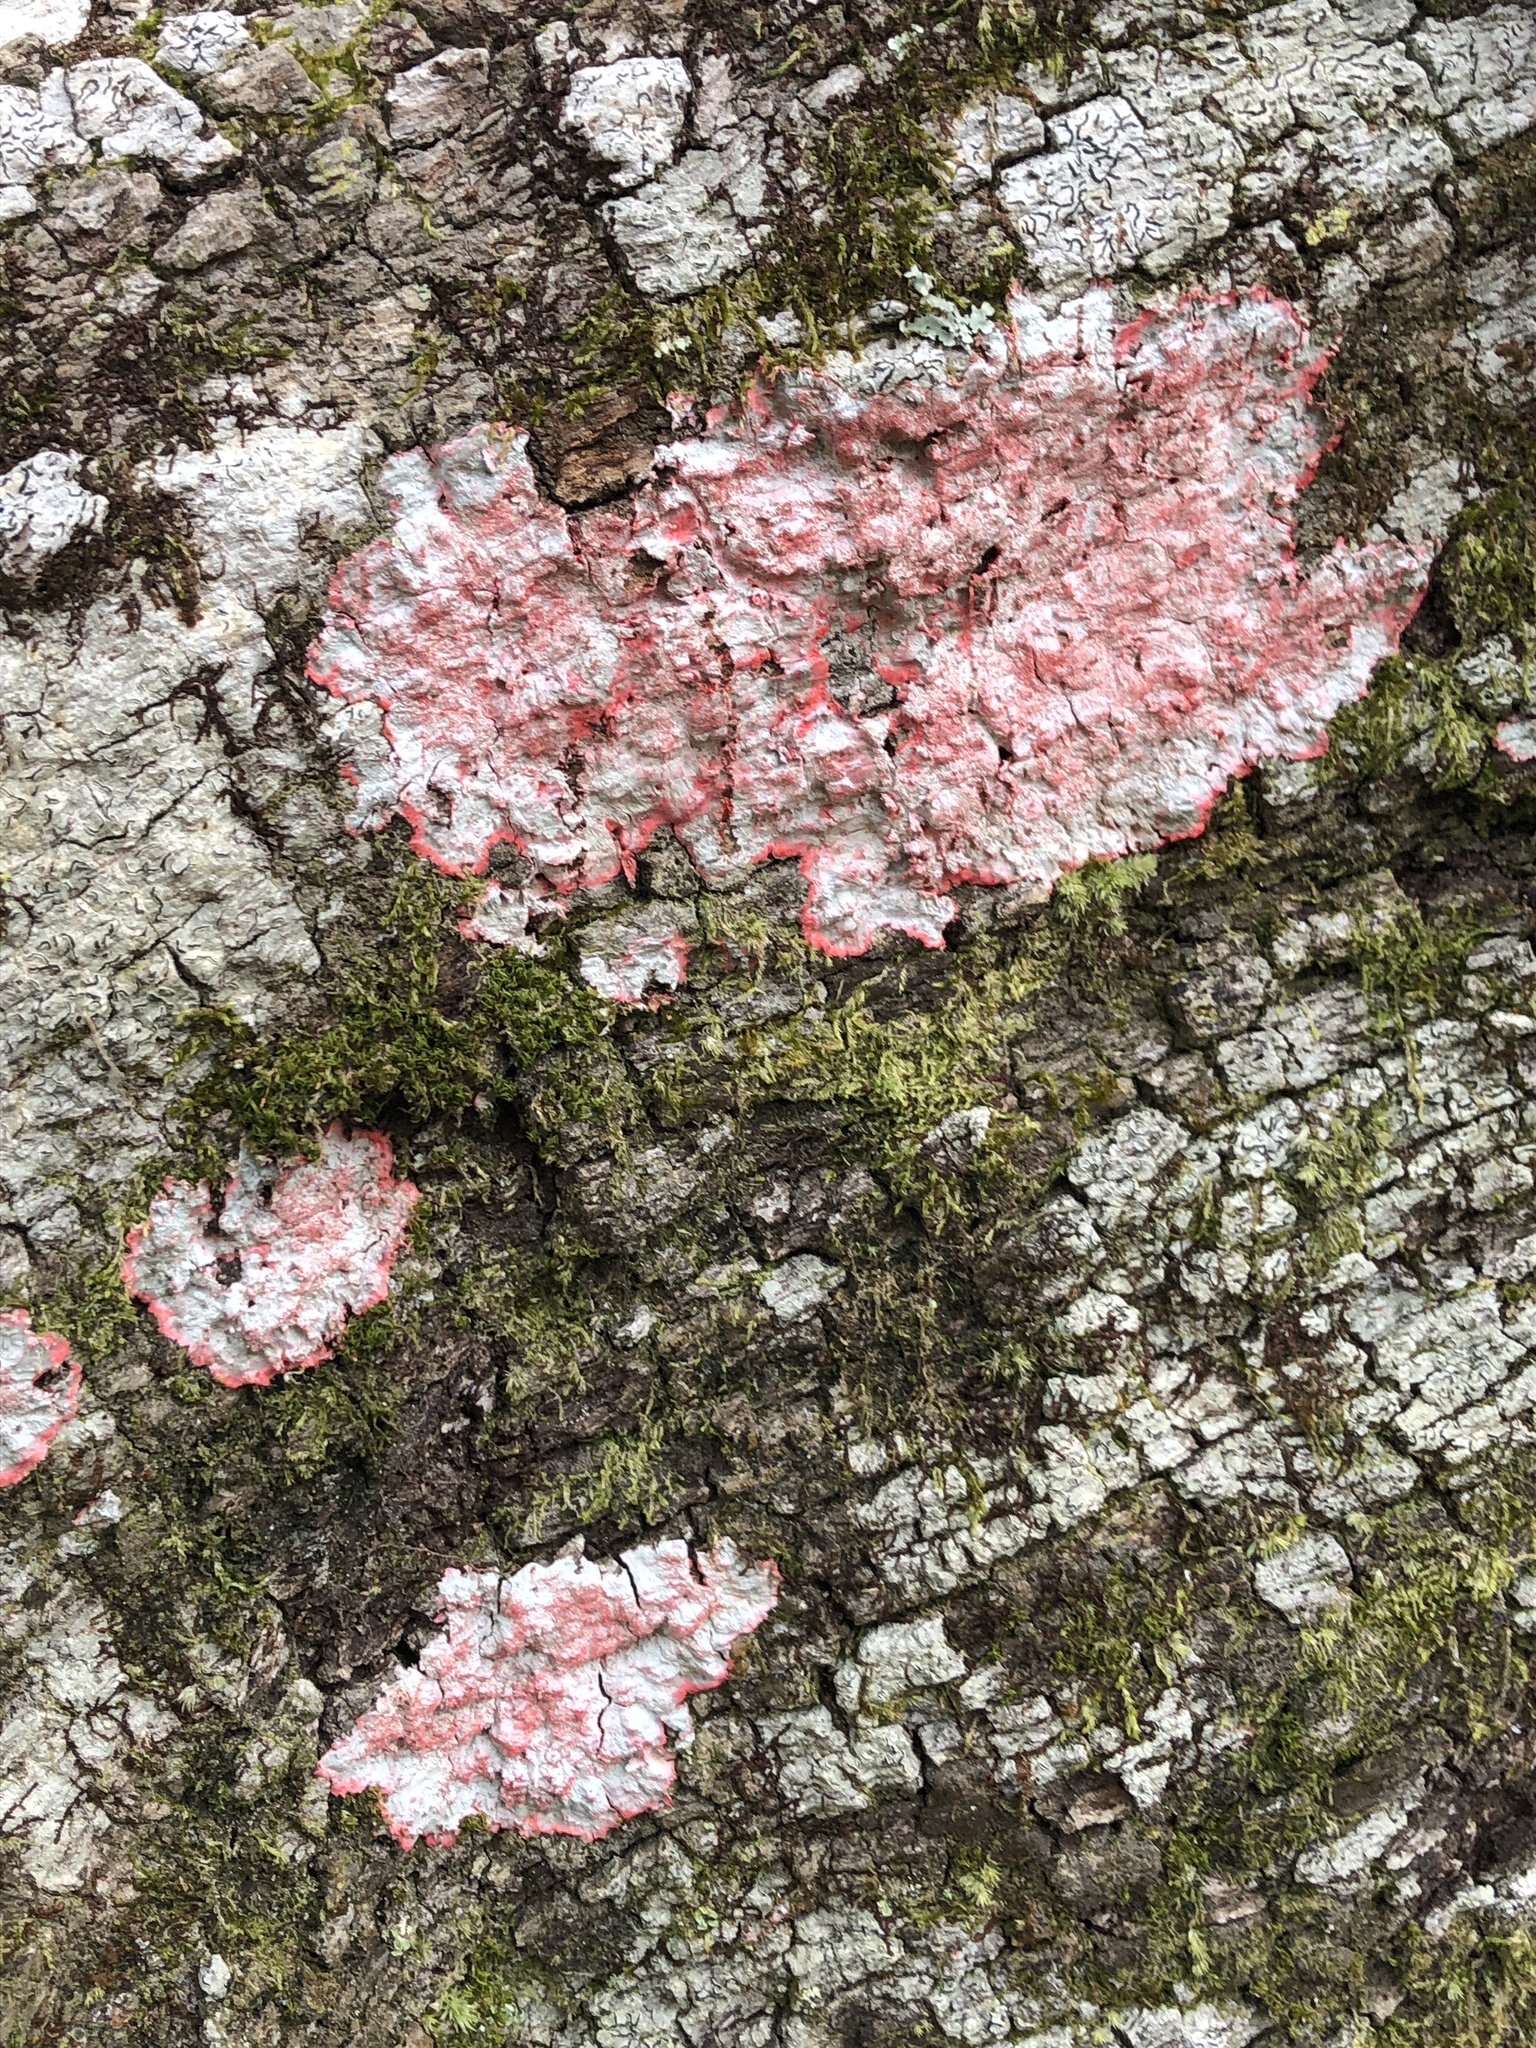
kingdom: Fungi
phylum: Ascomycota
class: Arthoniomycetes
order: Arthoniales
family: Arthoniaceae
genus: Herpothallon
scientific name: Herpothallon rubrocinctum
